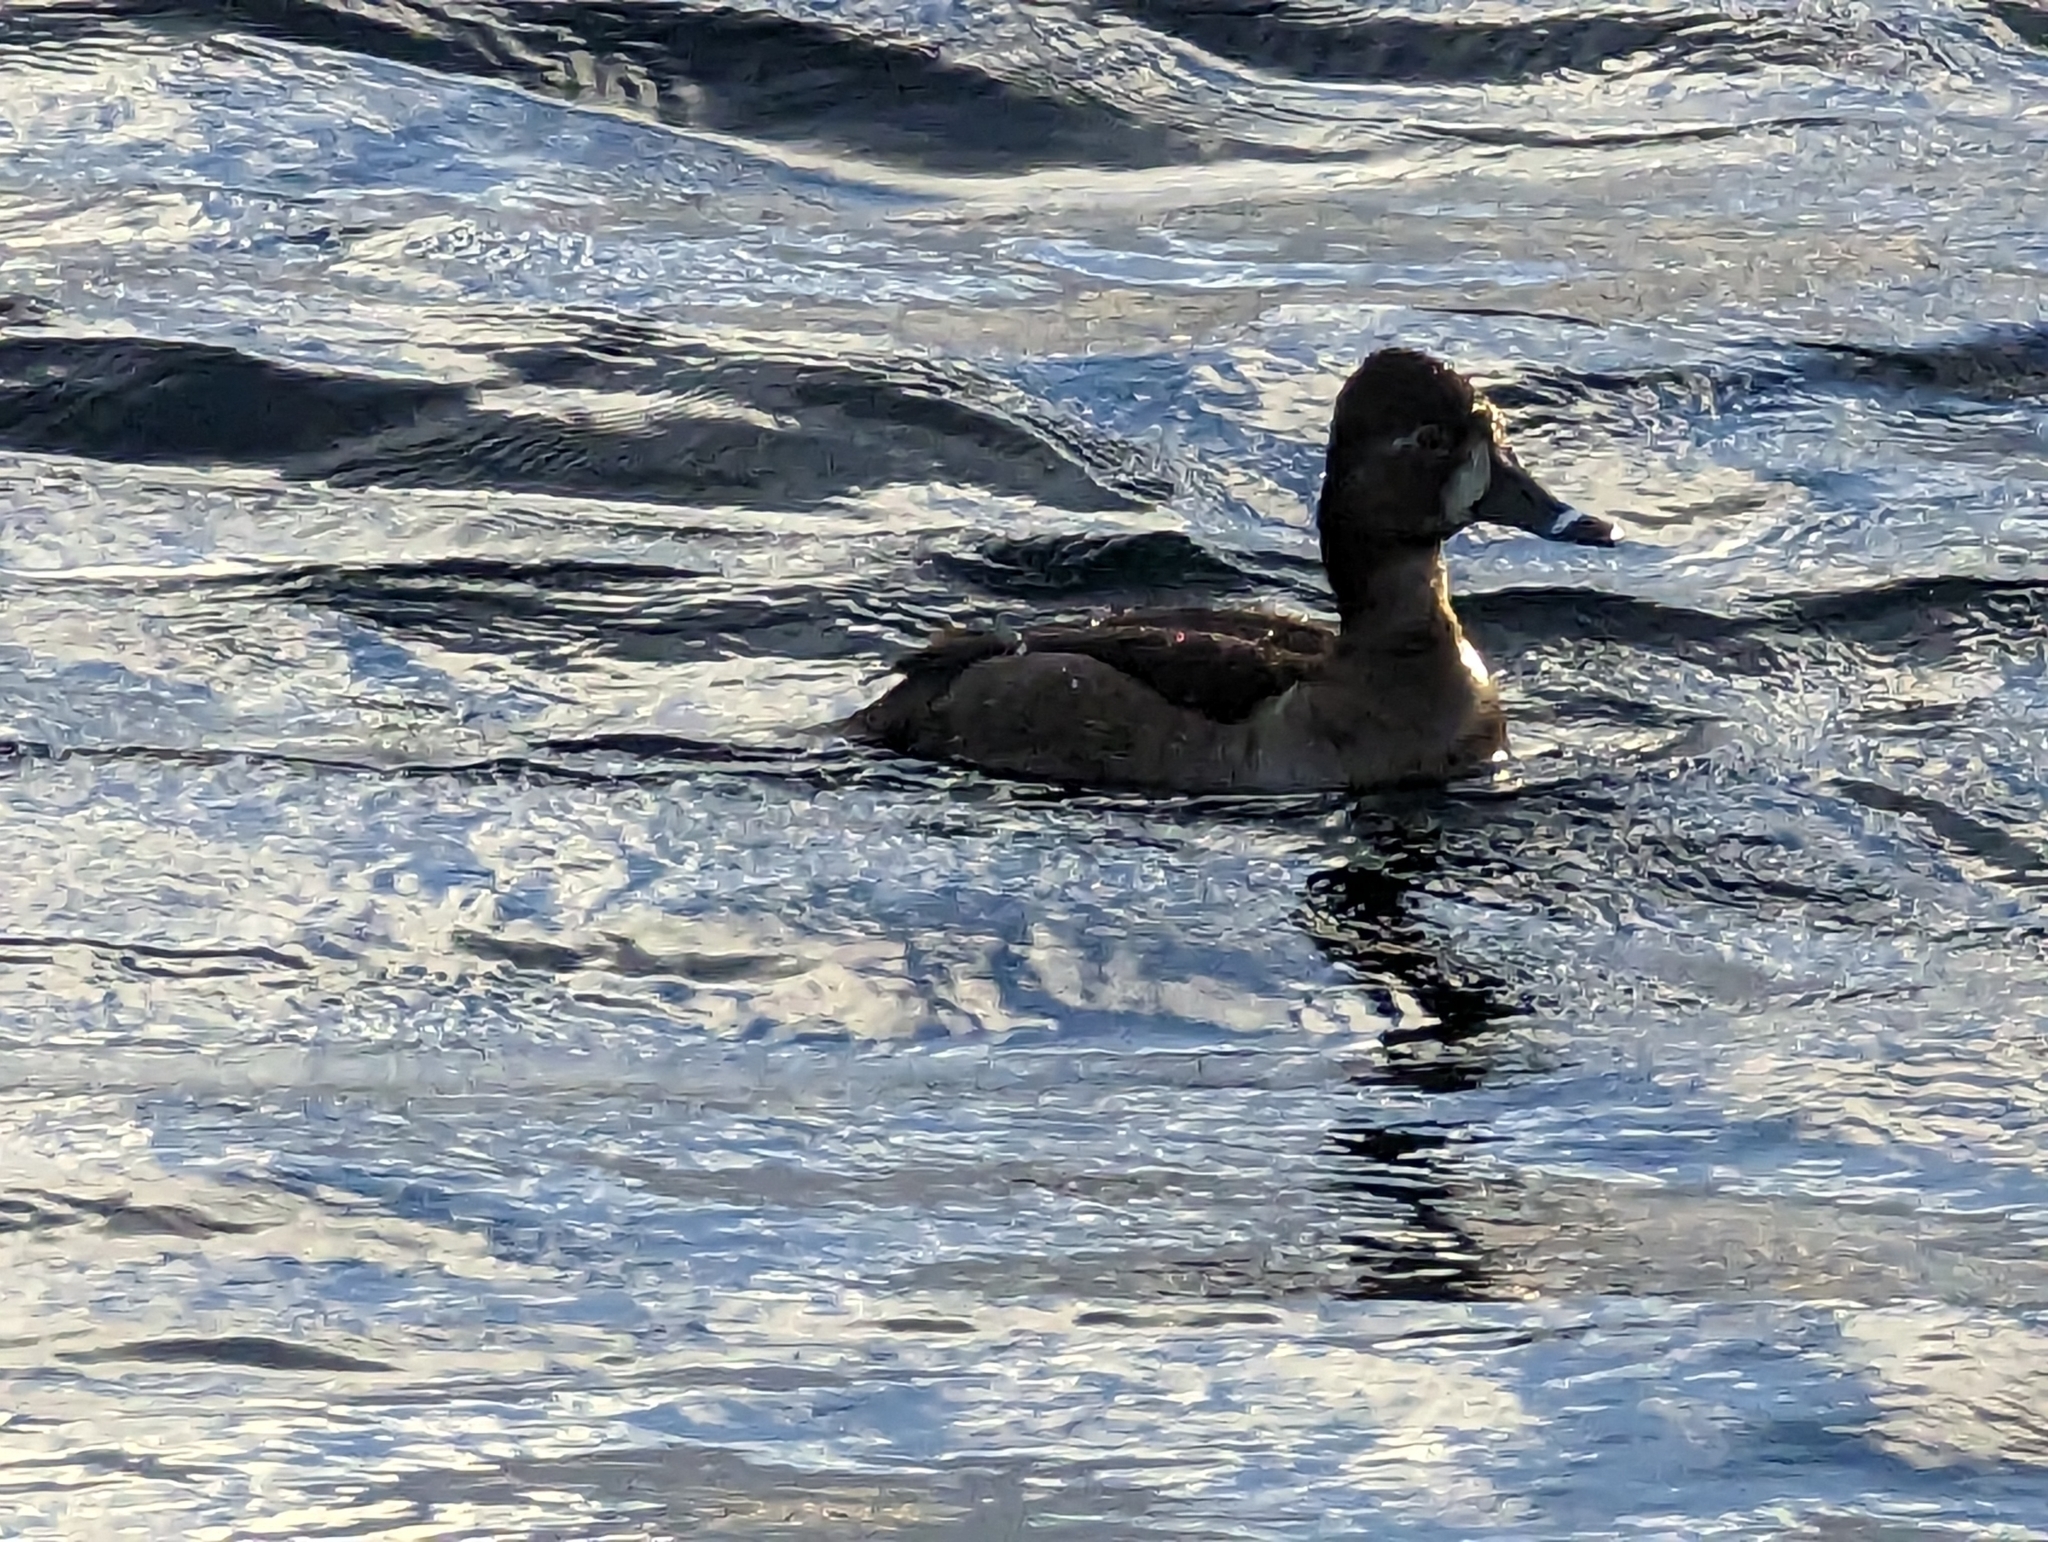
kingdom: Animalia
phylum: Chordata
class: Aves
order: Anseriformes
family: Anatidae
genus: Aythya
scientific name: Aythya collaris
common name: Ring-necked duck
